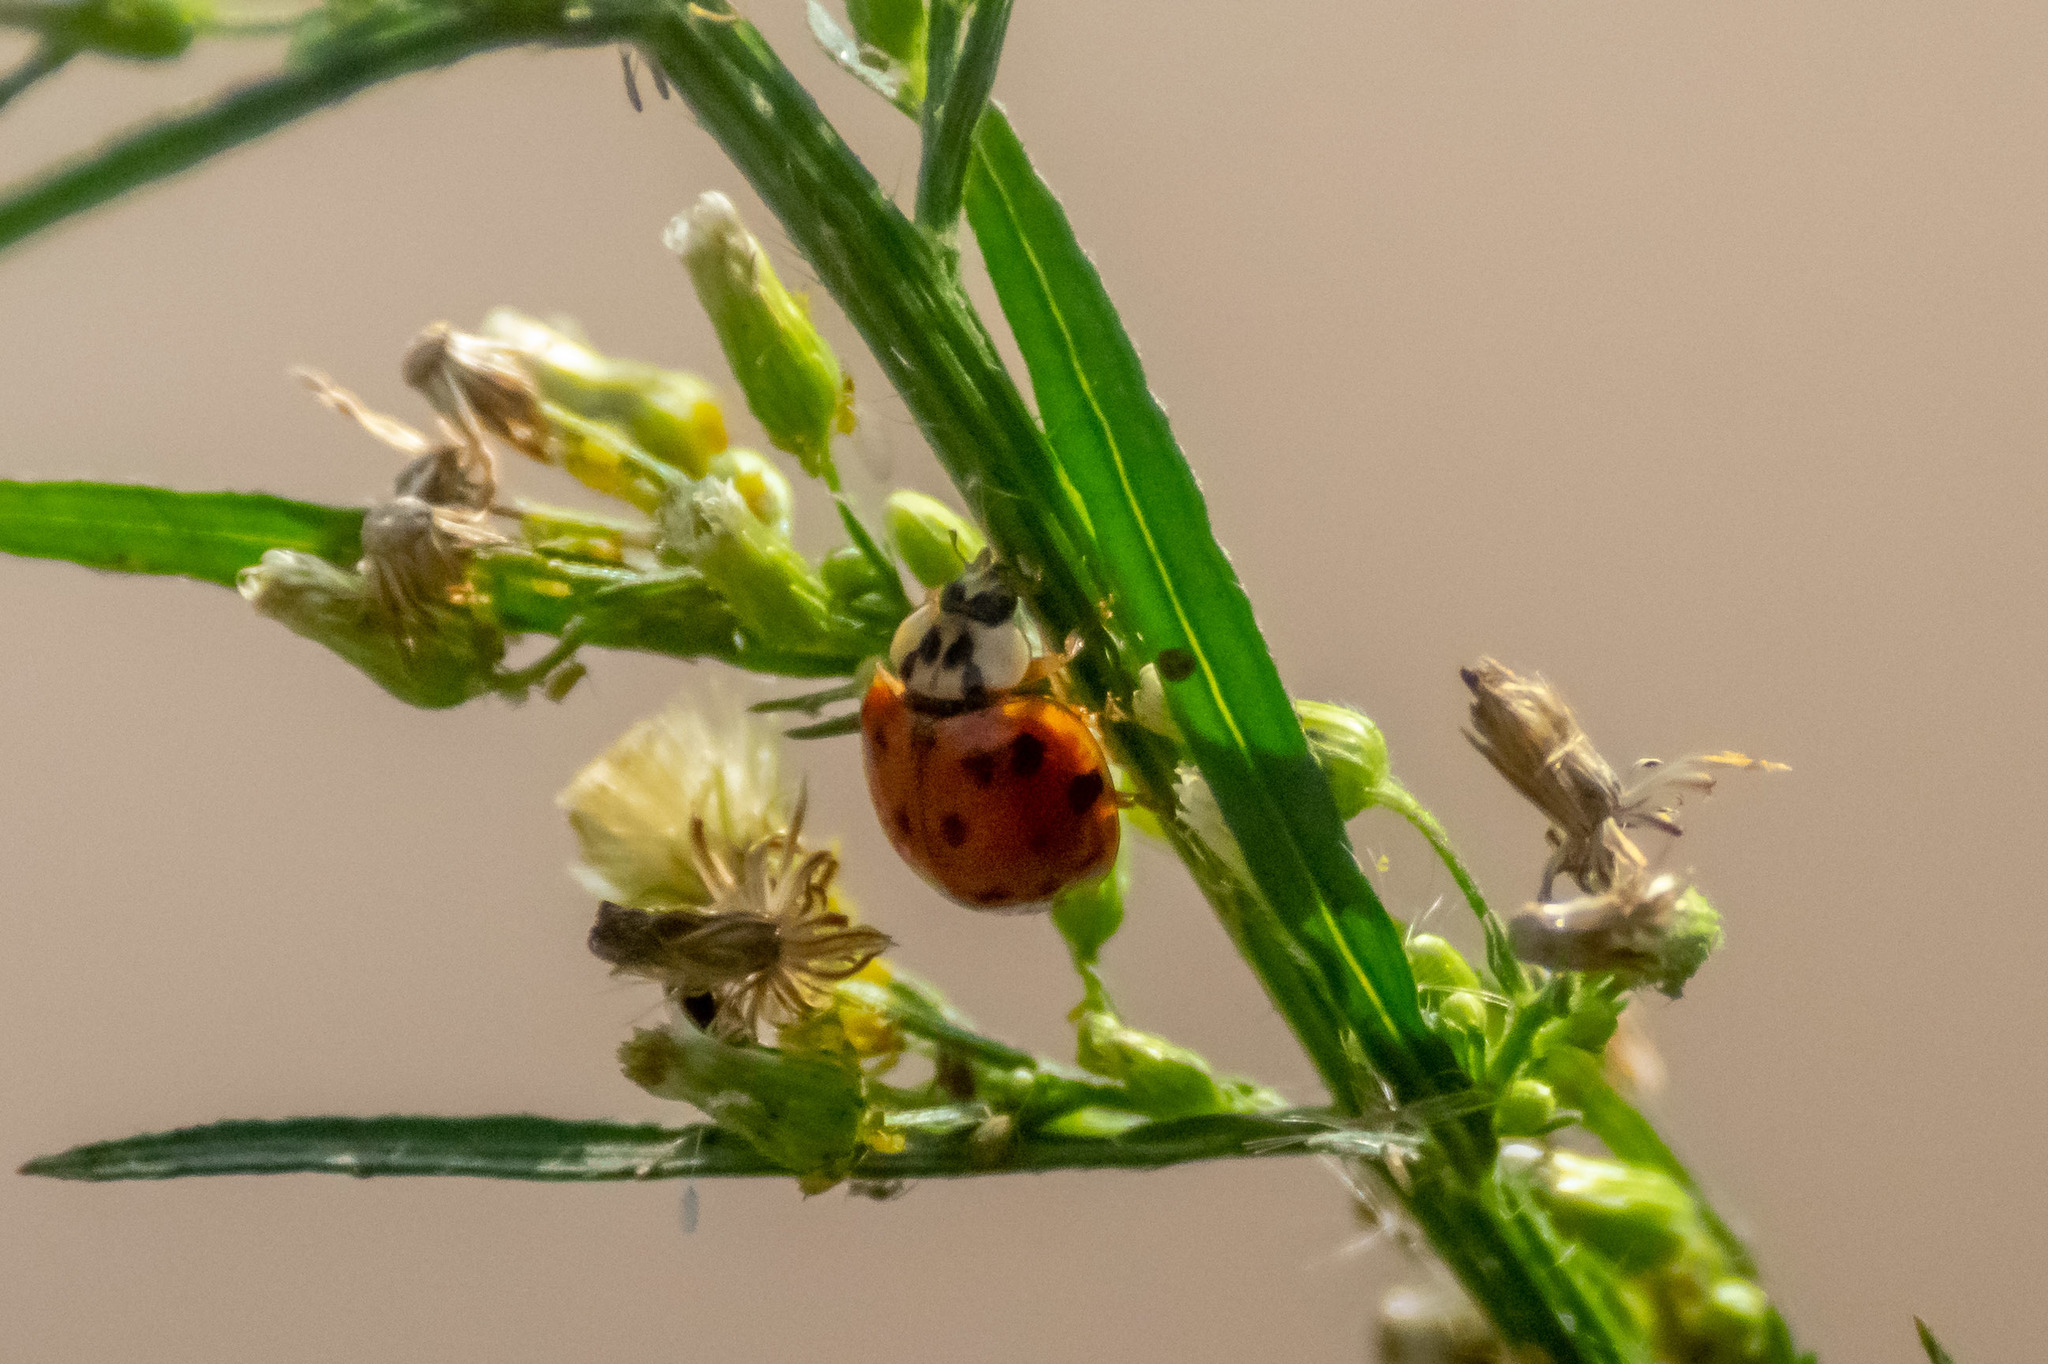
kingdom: Animalia
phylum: Arthropoda
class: Insecta
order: Coleoptera
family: Coccinellidae
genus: Harmonia
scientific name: Harmonia axyridis
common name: Harlequin ladybird
